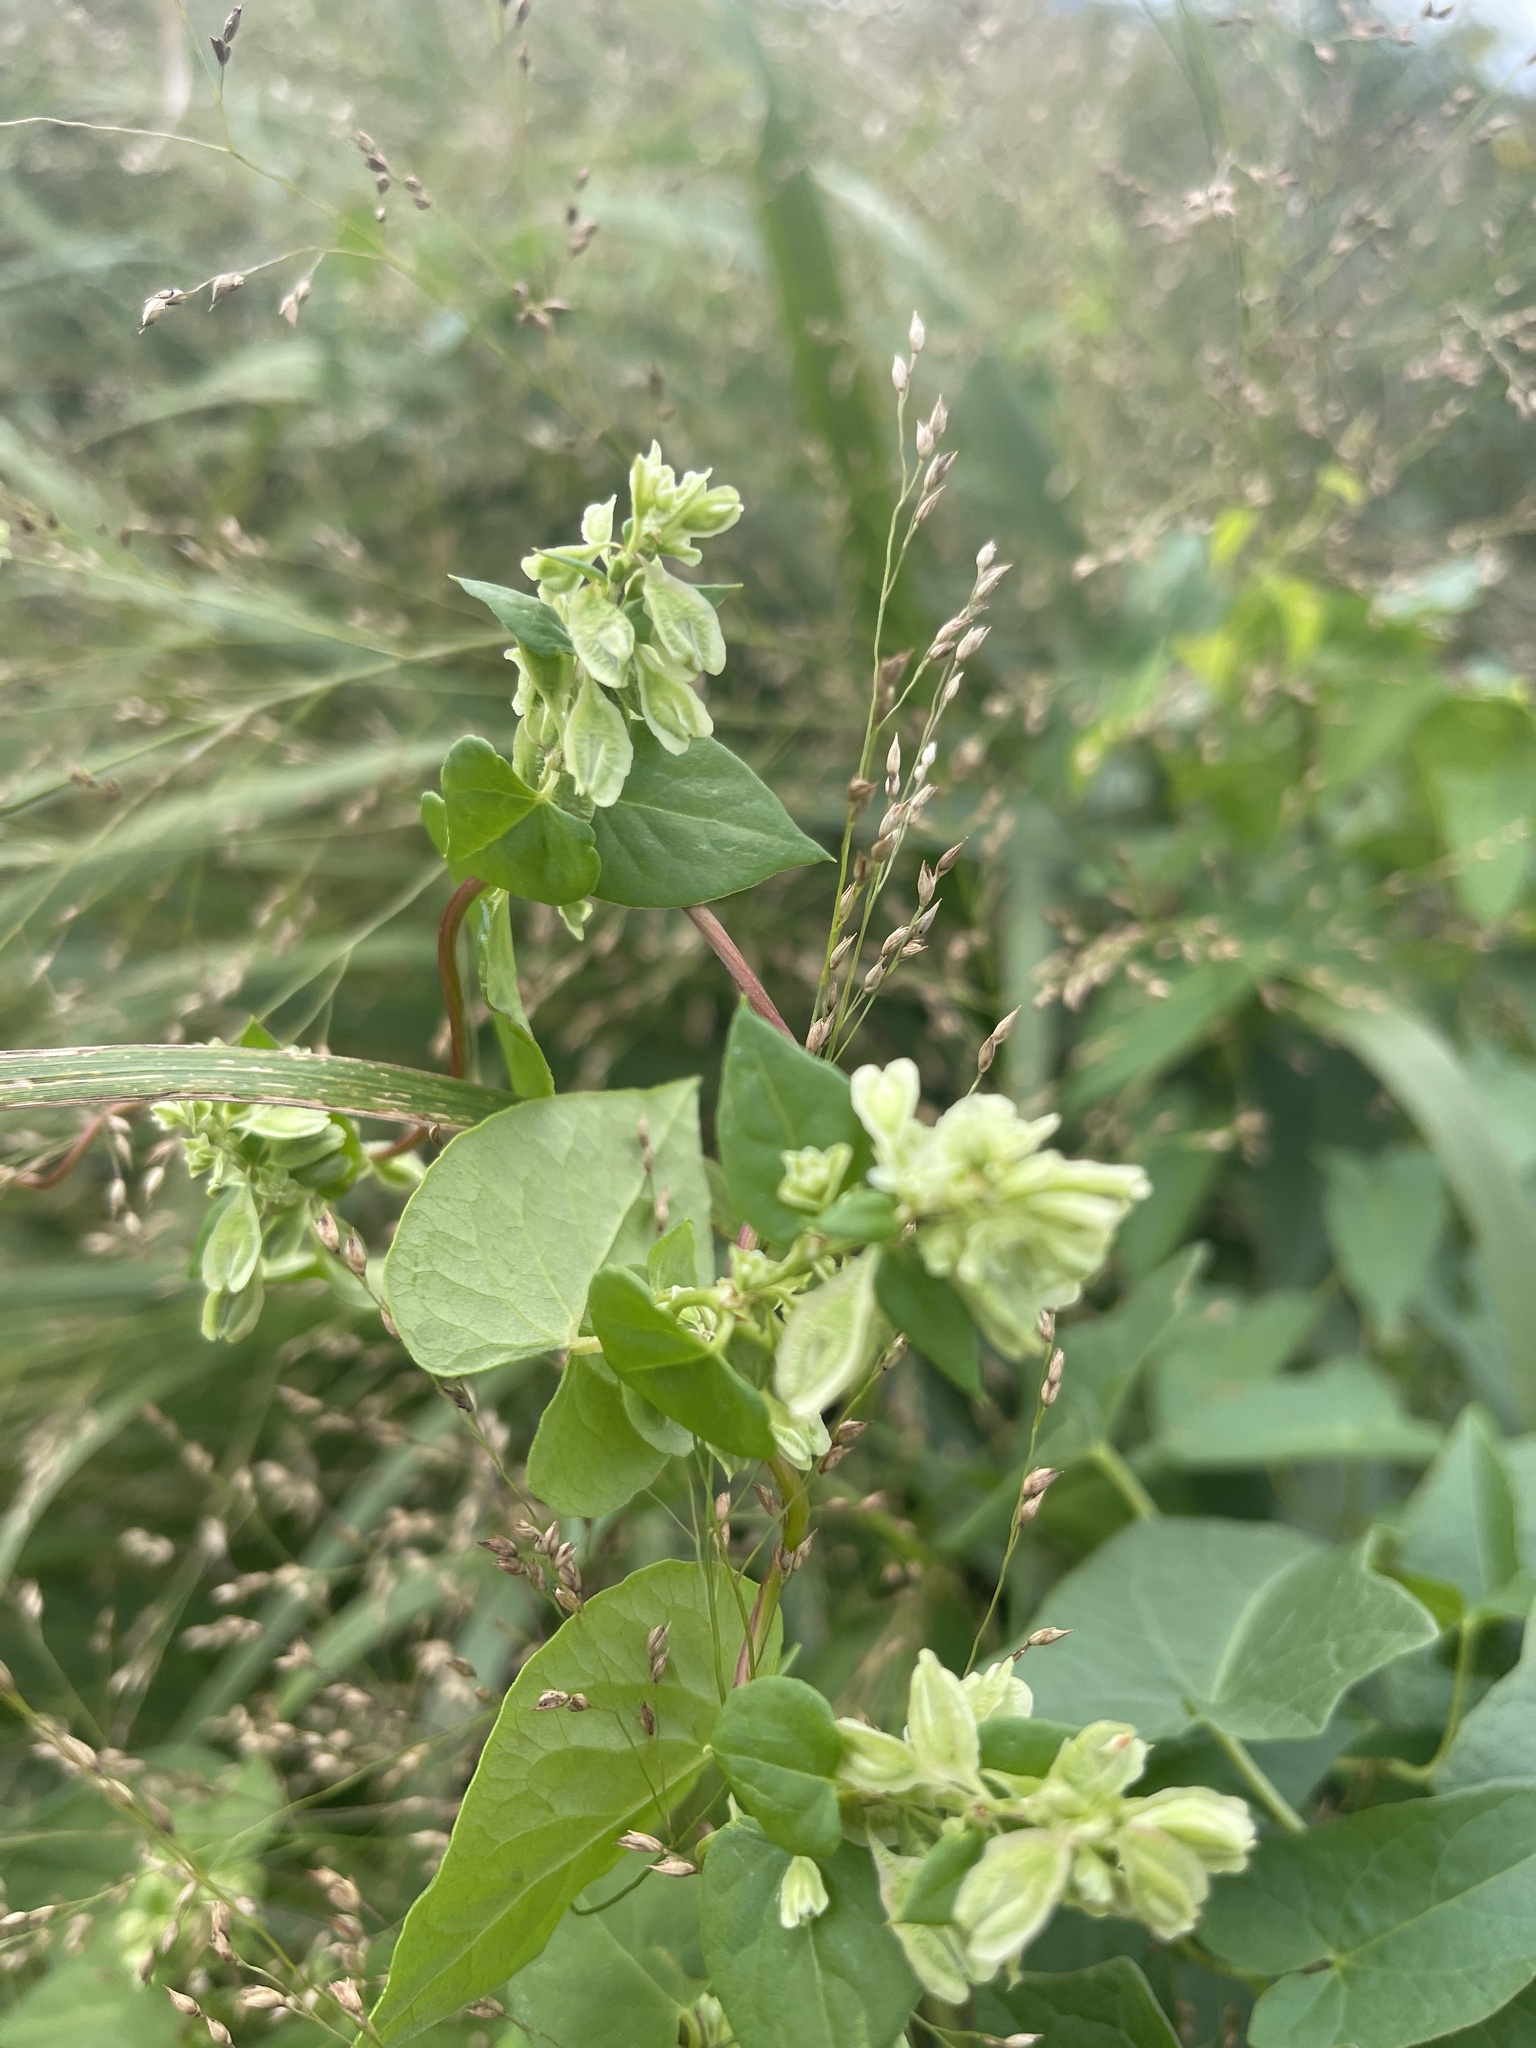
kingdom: Plantae
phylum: Tracheophyta
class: Magnoliopsida
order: Caryophyllales
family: Polygonaceae
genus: Fallopia
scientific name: Fallopia scandens
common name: Climbing false buckwheat
